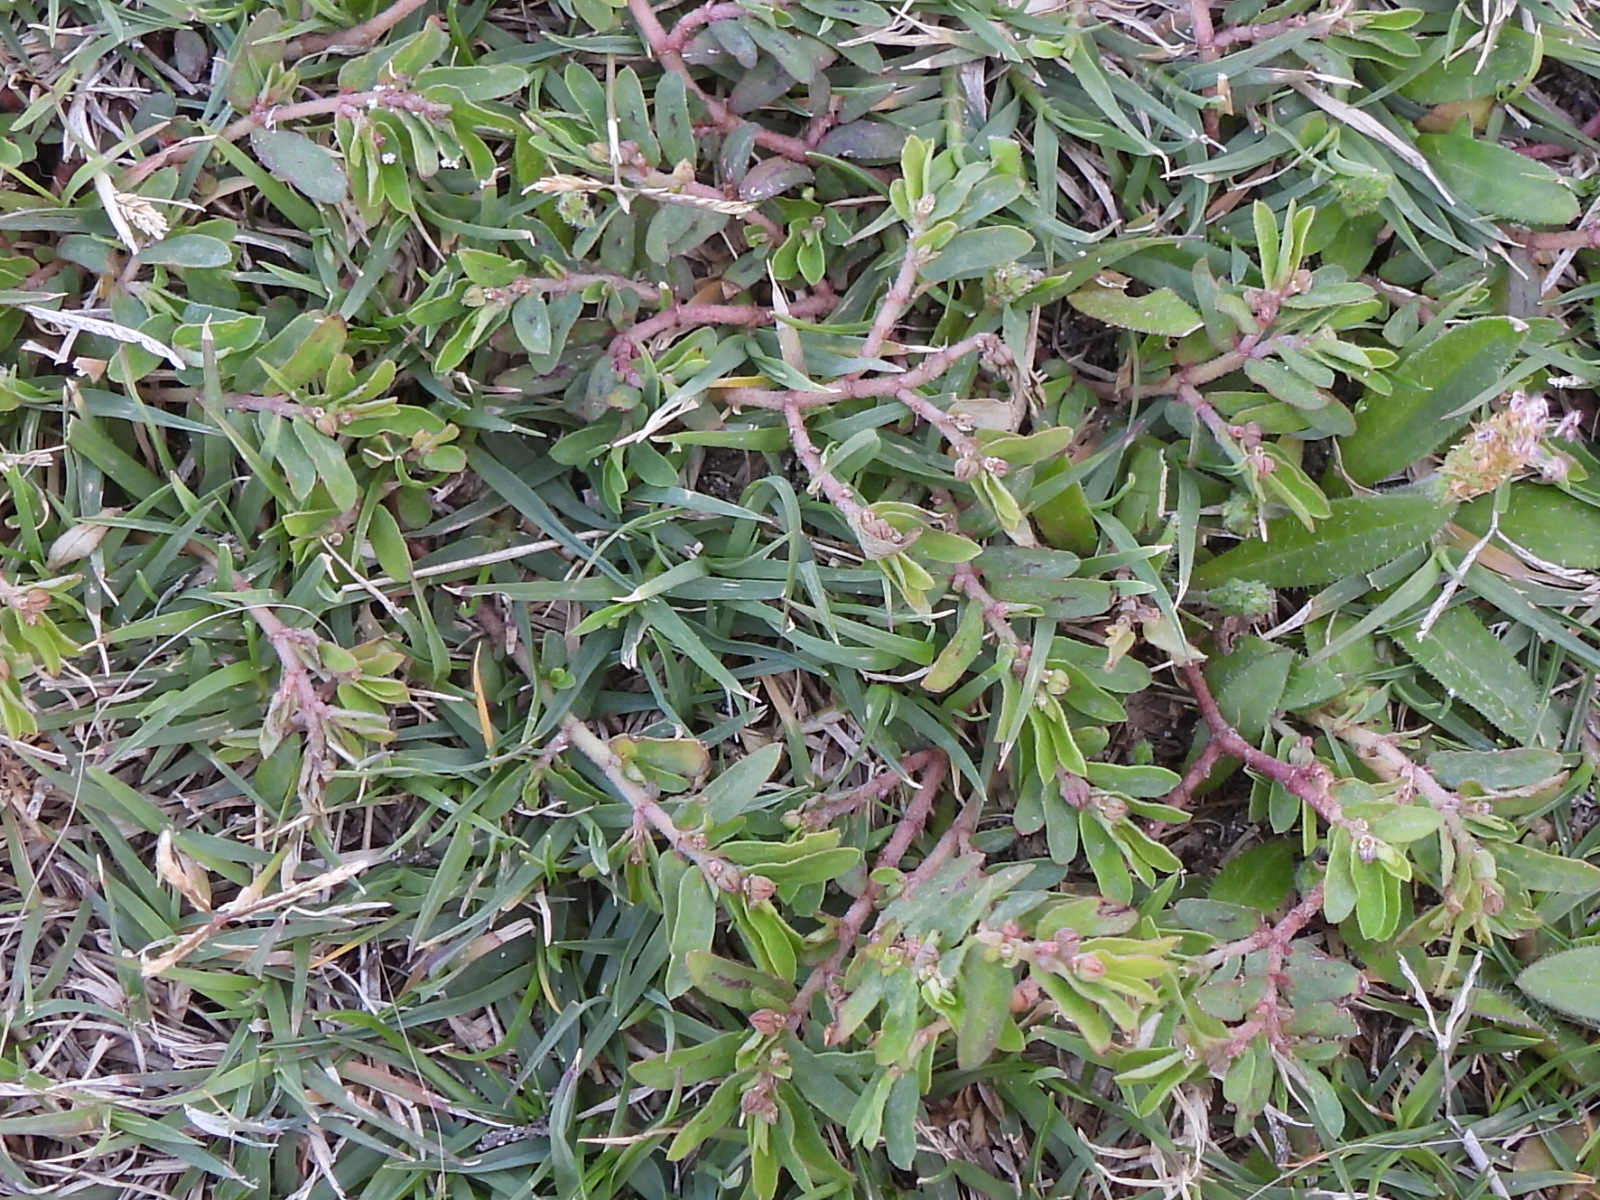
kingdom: Plantae
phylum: Tracheophyta
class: Magnoliopsida
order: Malpighiales
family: Euphorbiaceae
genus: Euphorbia
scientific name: Euphorbia maculata
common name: Spotted spurge
